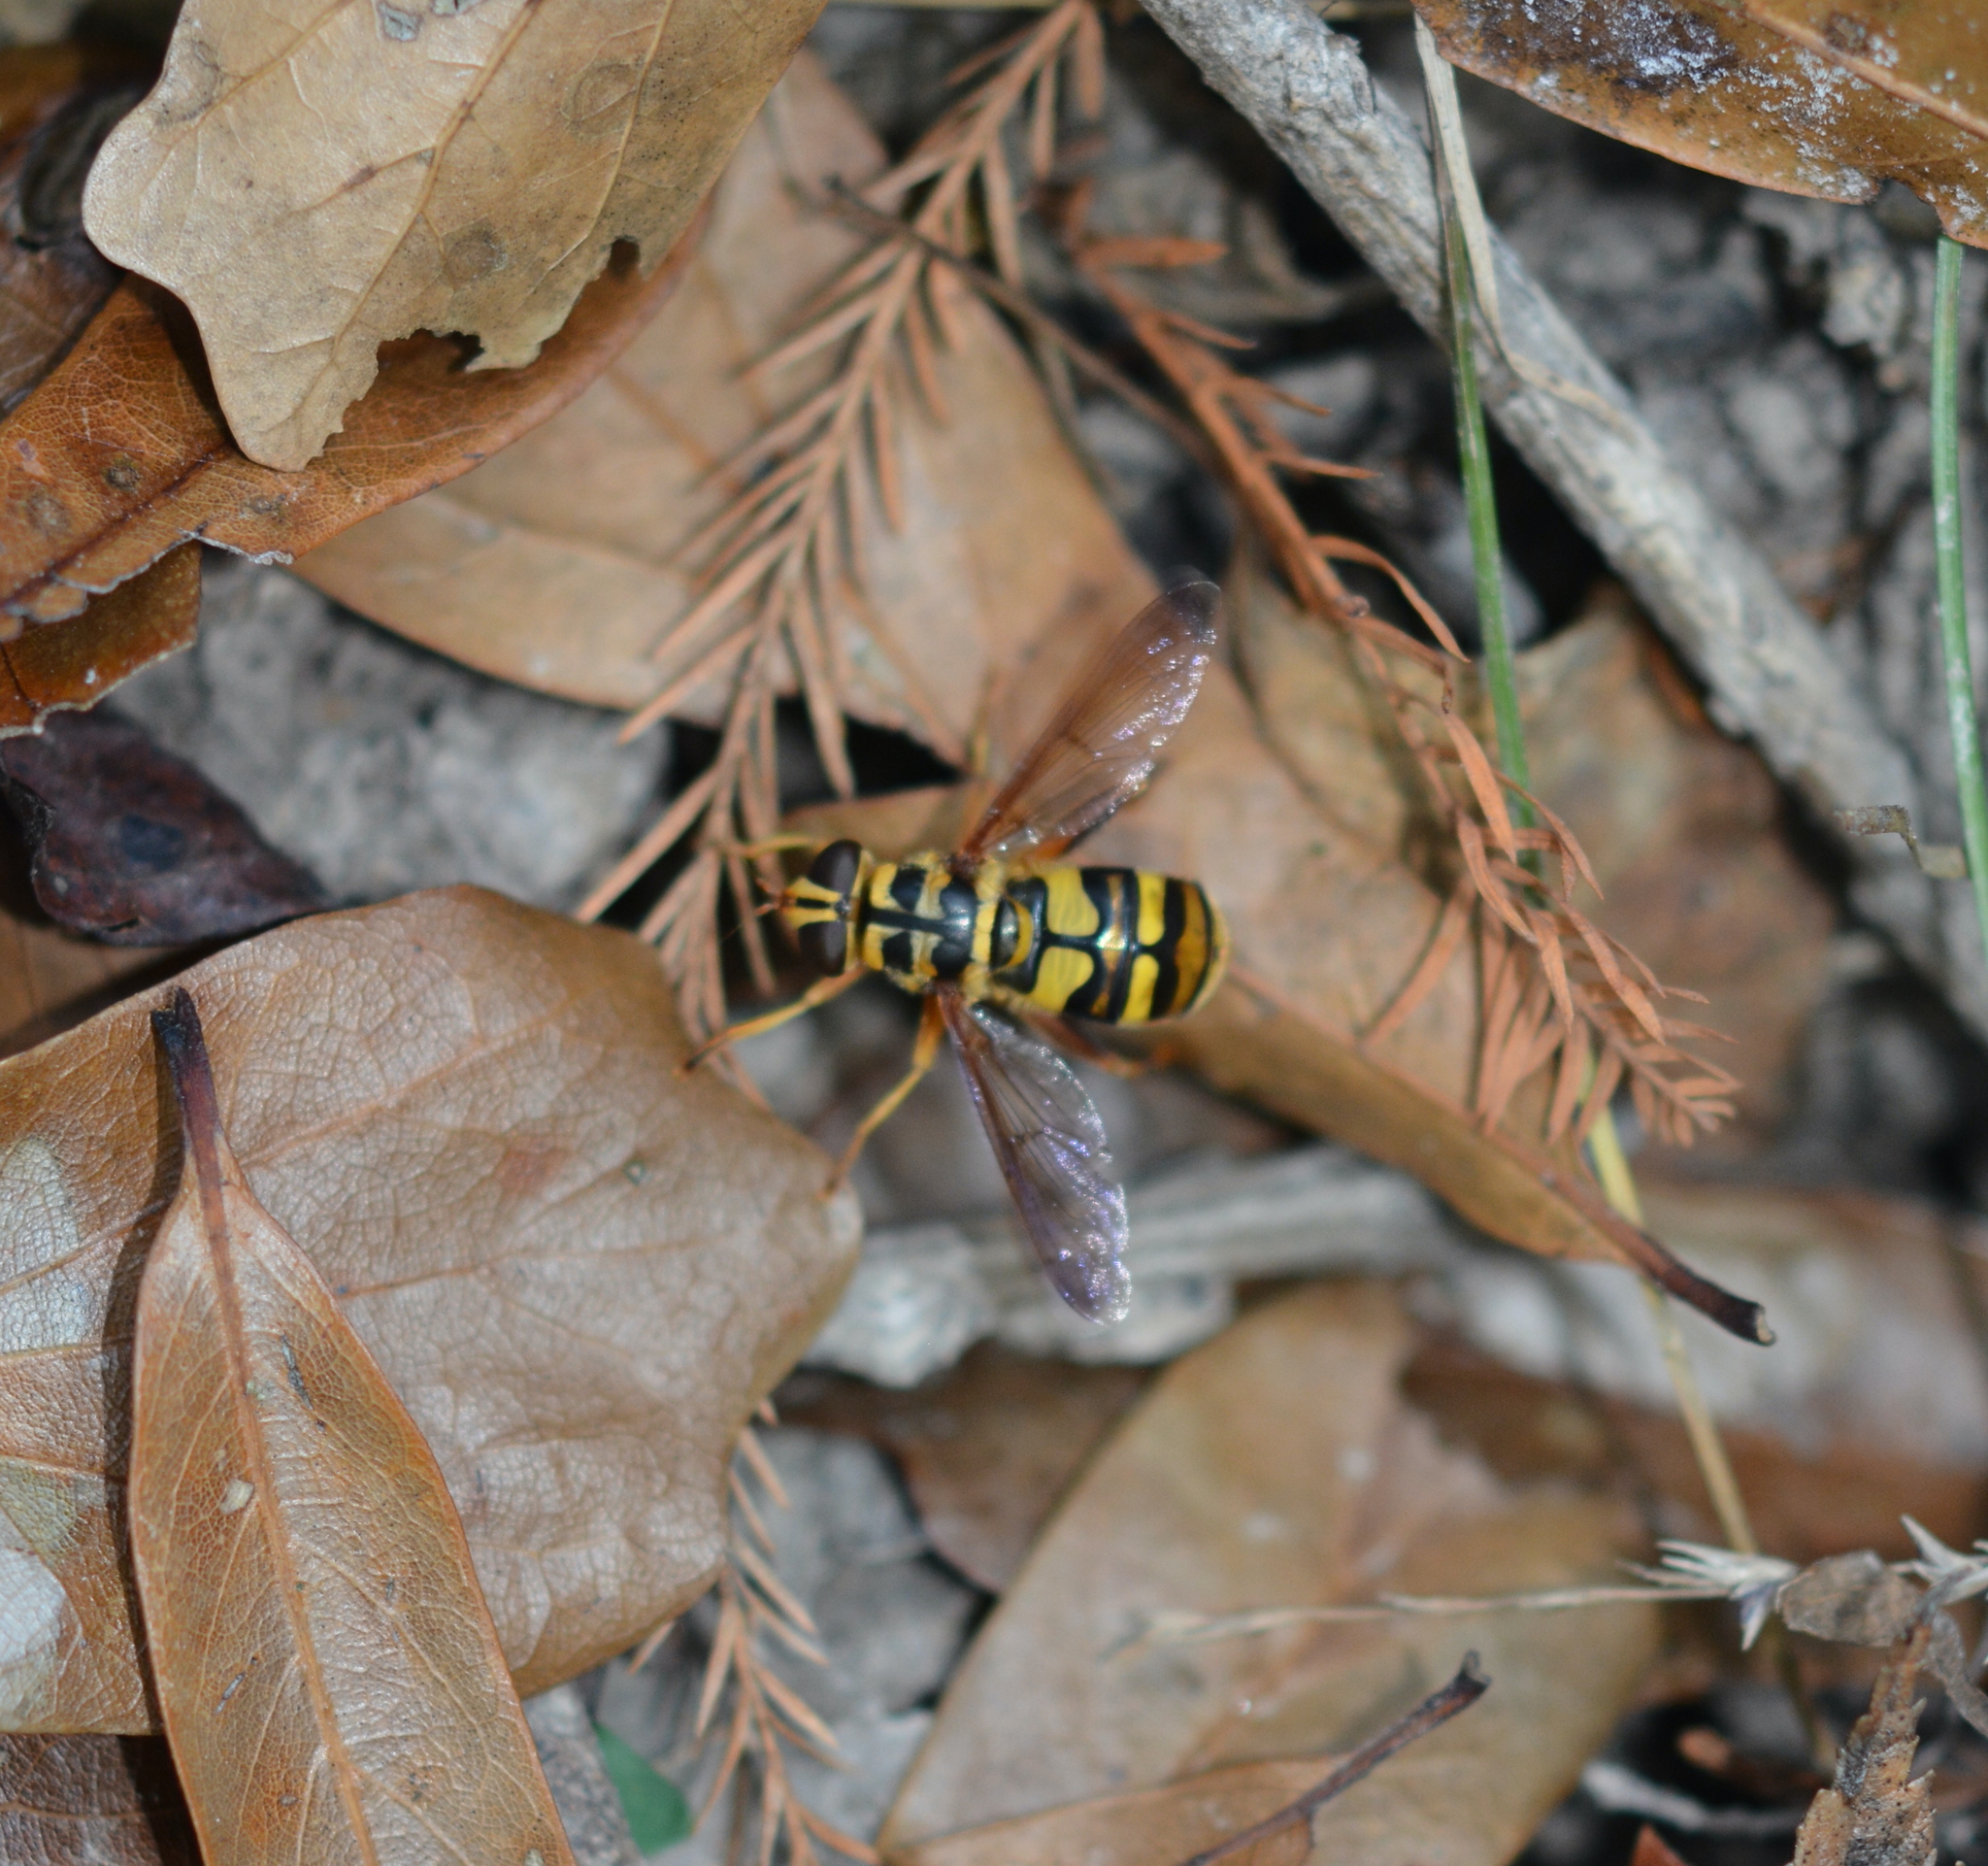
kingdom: Animalia
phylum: Arthropoda
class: Insecta
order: Diptera
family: Syrphidae
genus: Milesia
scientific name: Milesia virginiensis
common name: Virginia giant
